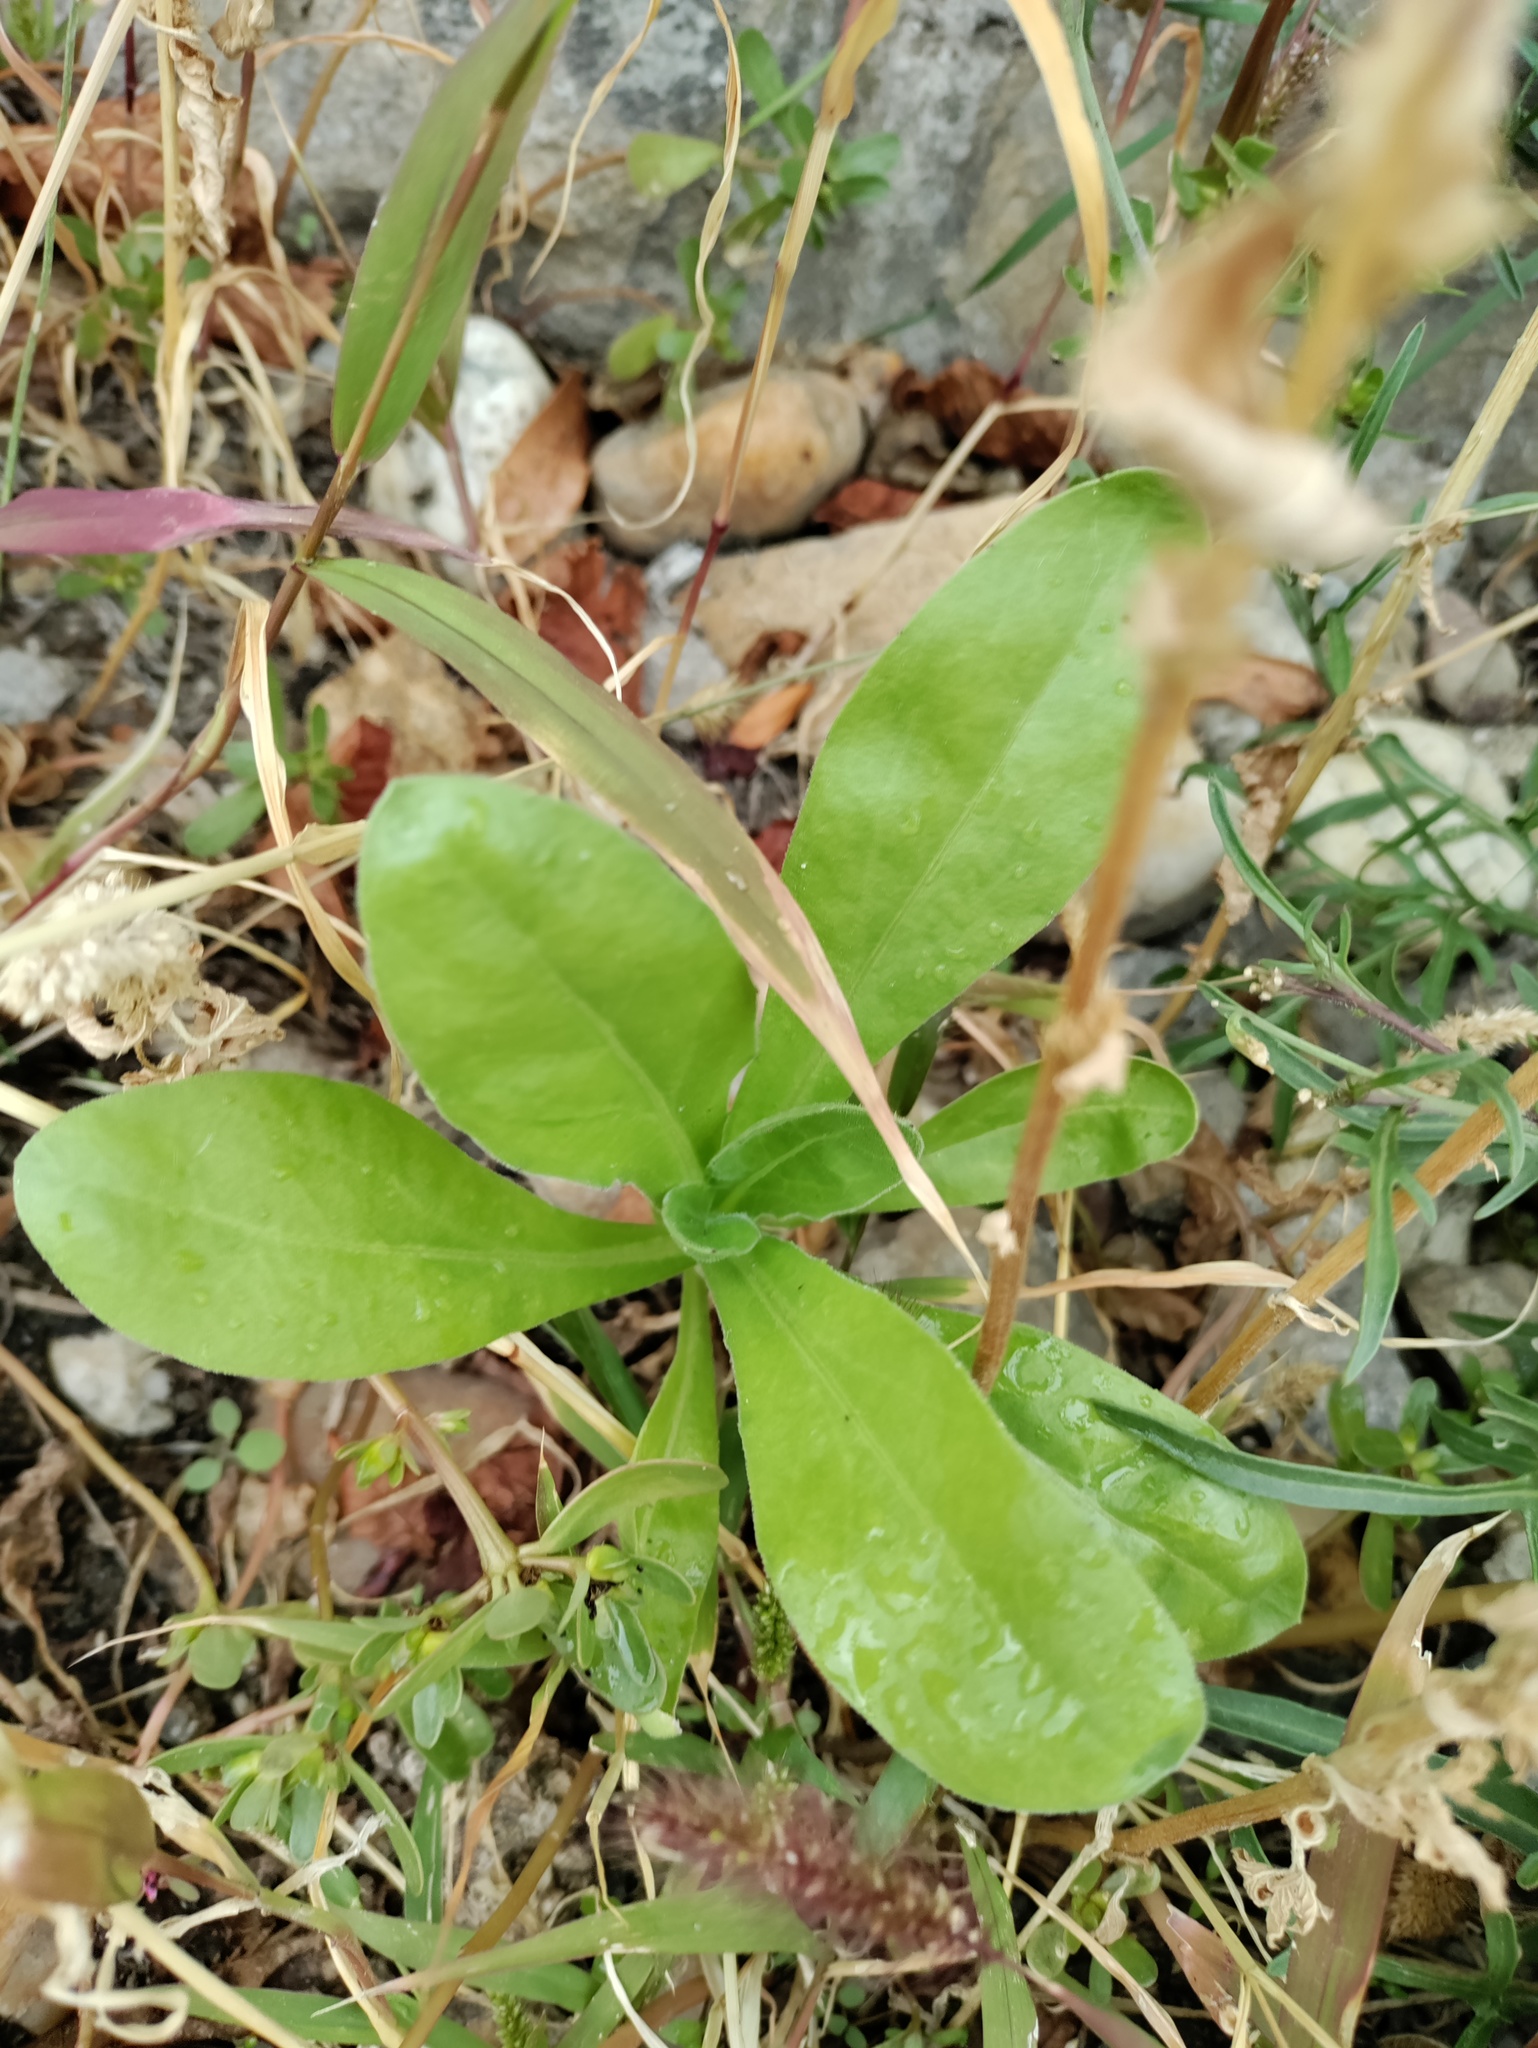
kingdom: Plantae
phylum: Tracheophyta
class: Magnoliopsida
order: Asterales
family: Asteraceae
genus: Calendula
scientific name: Calendula officinalis
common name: Pot marigold
